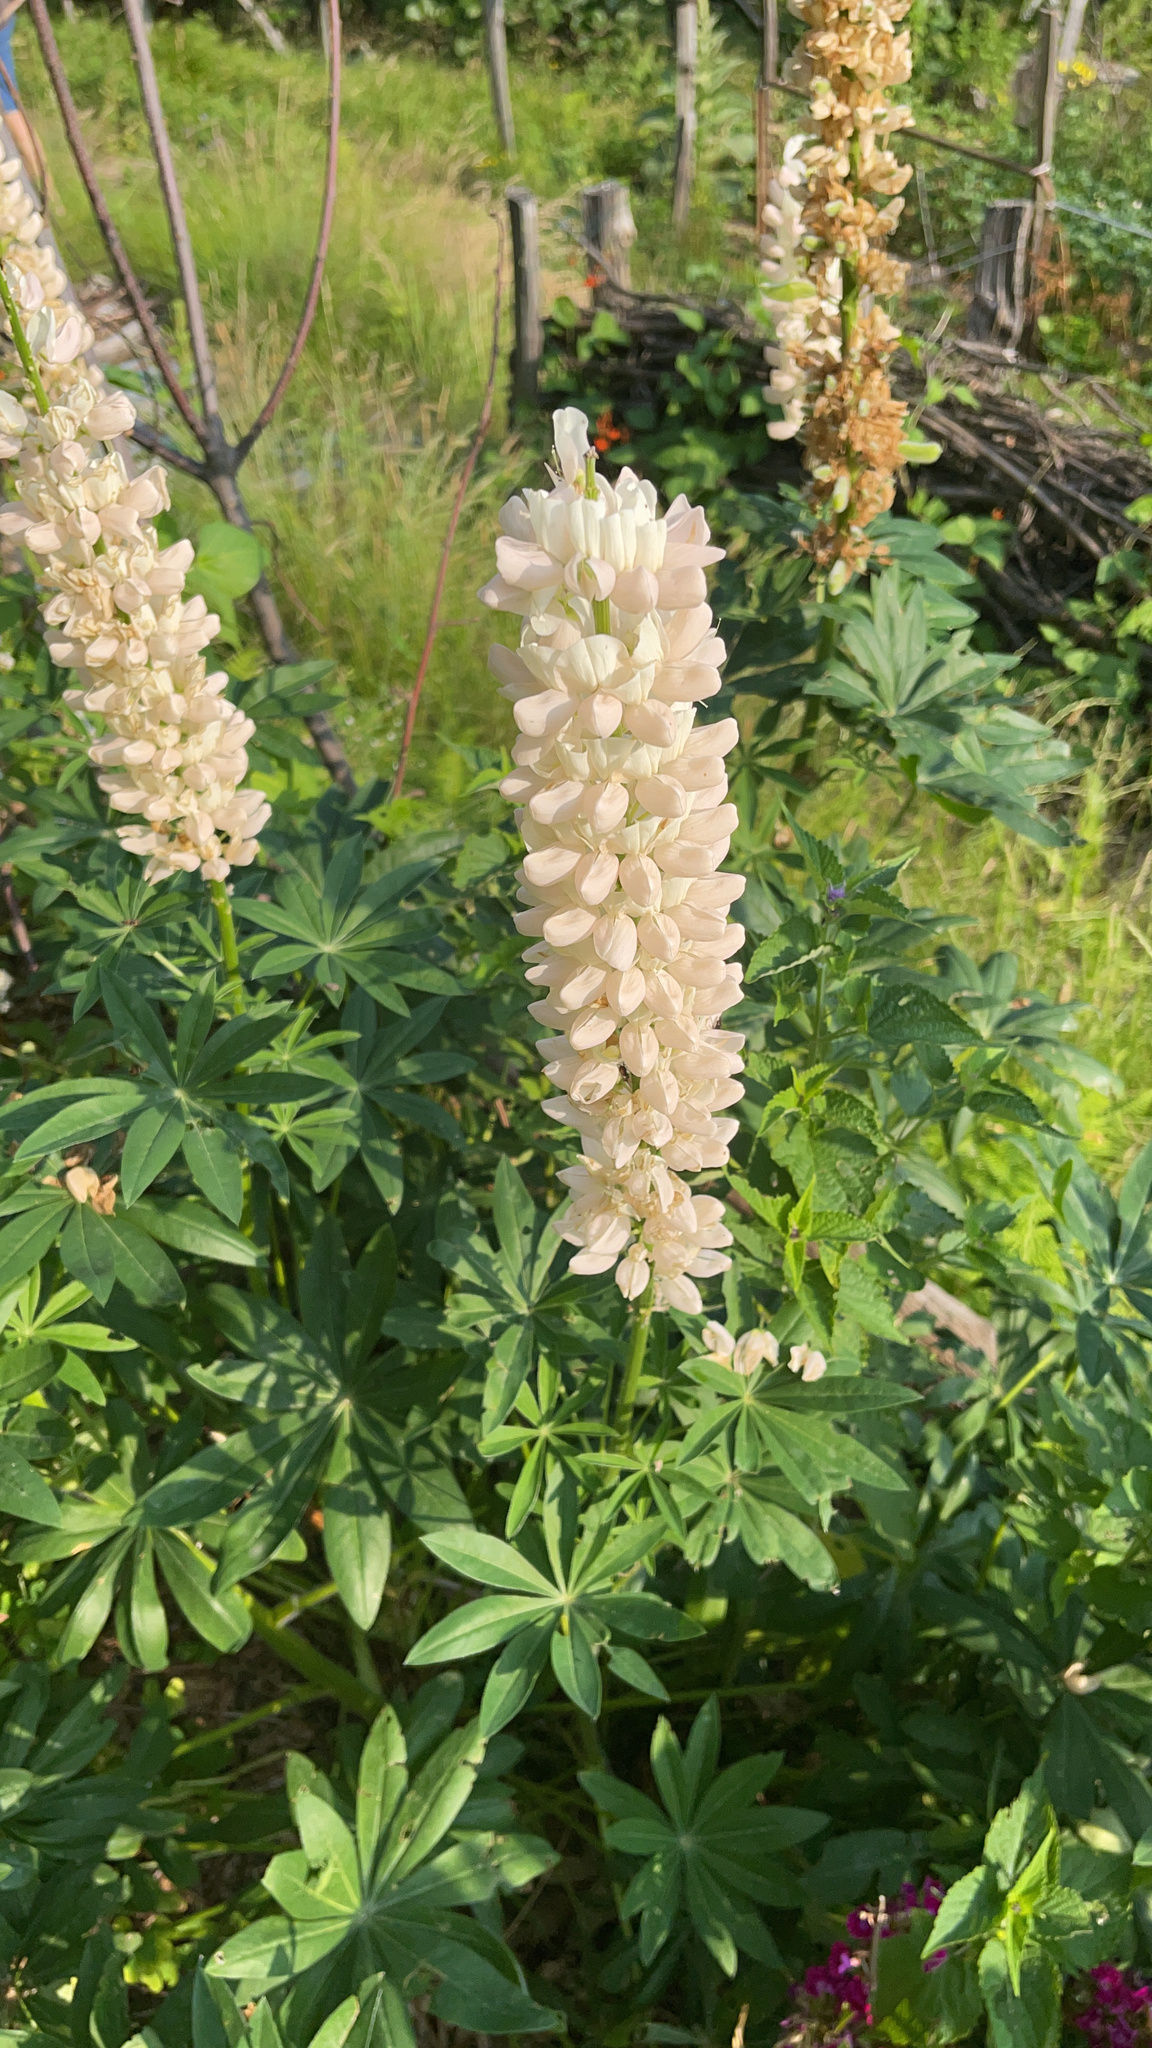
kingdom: Plantae
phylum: Tracheophyta
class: Magnoliopsida
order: Fabales
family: Fabaceae
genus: Lupinus
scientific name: Lupinus polyphyllus
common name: Garden lupin
